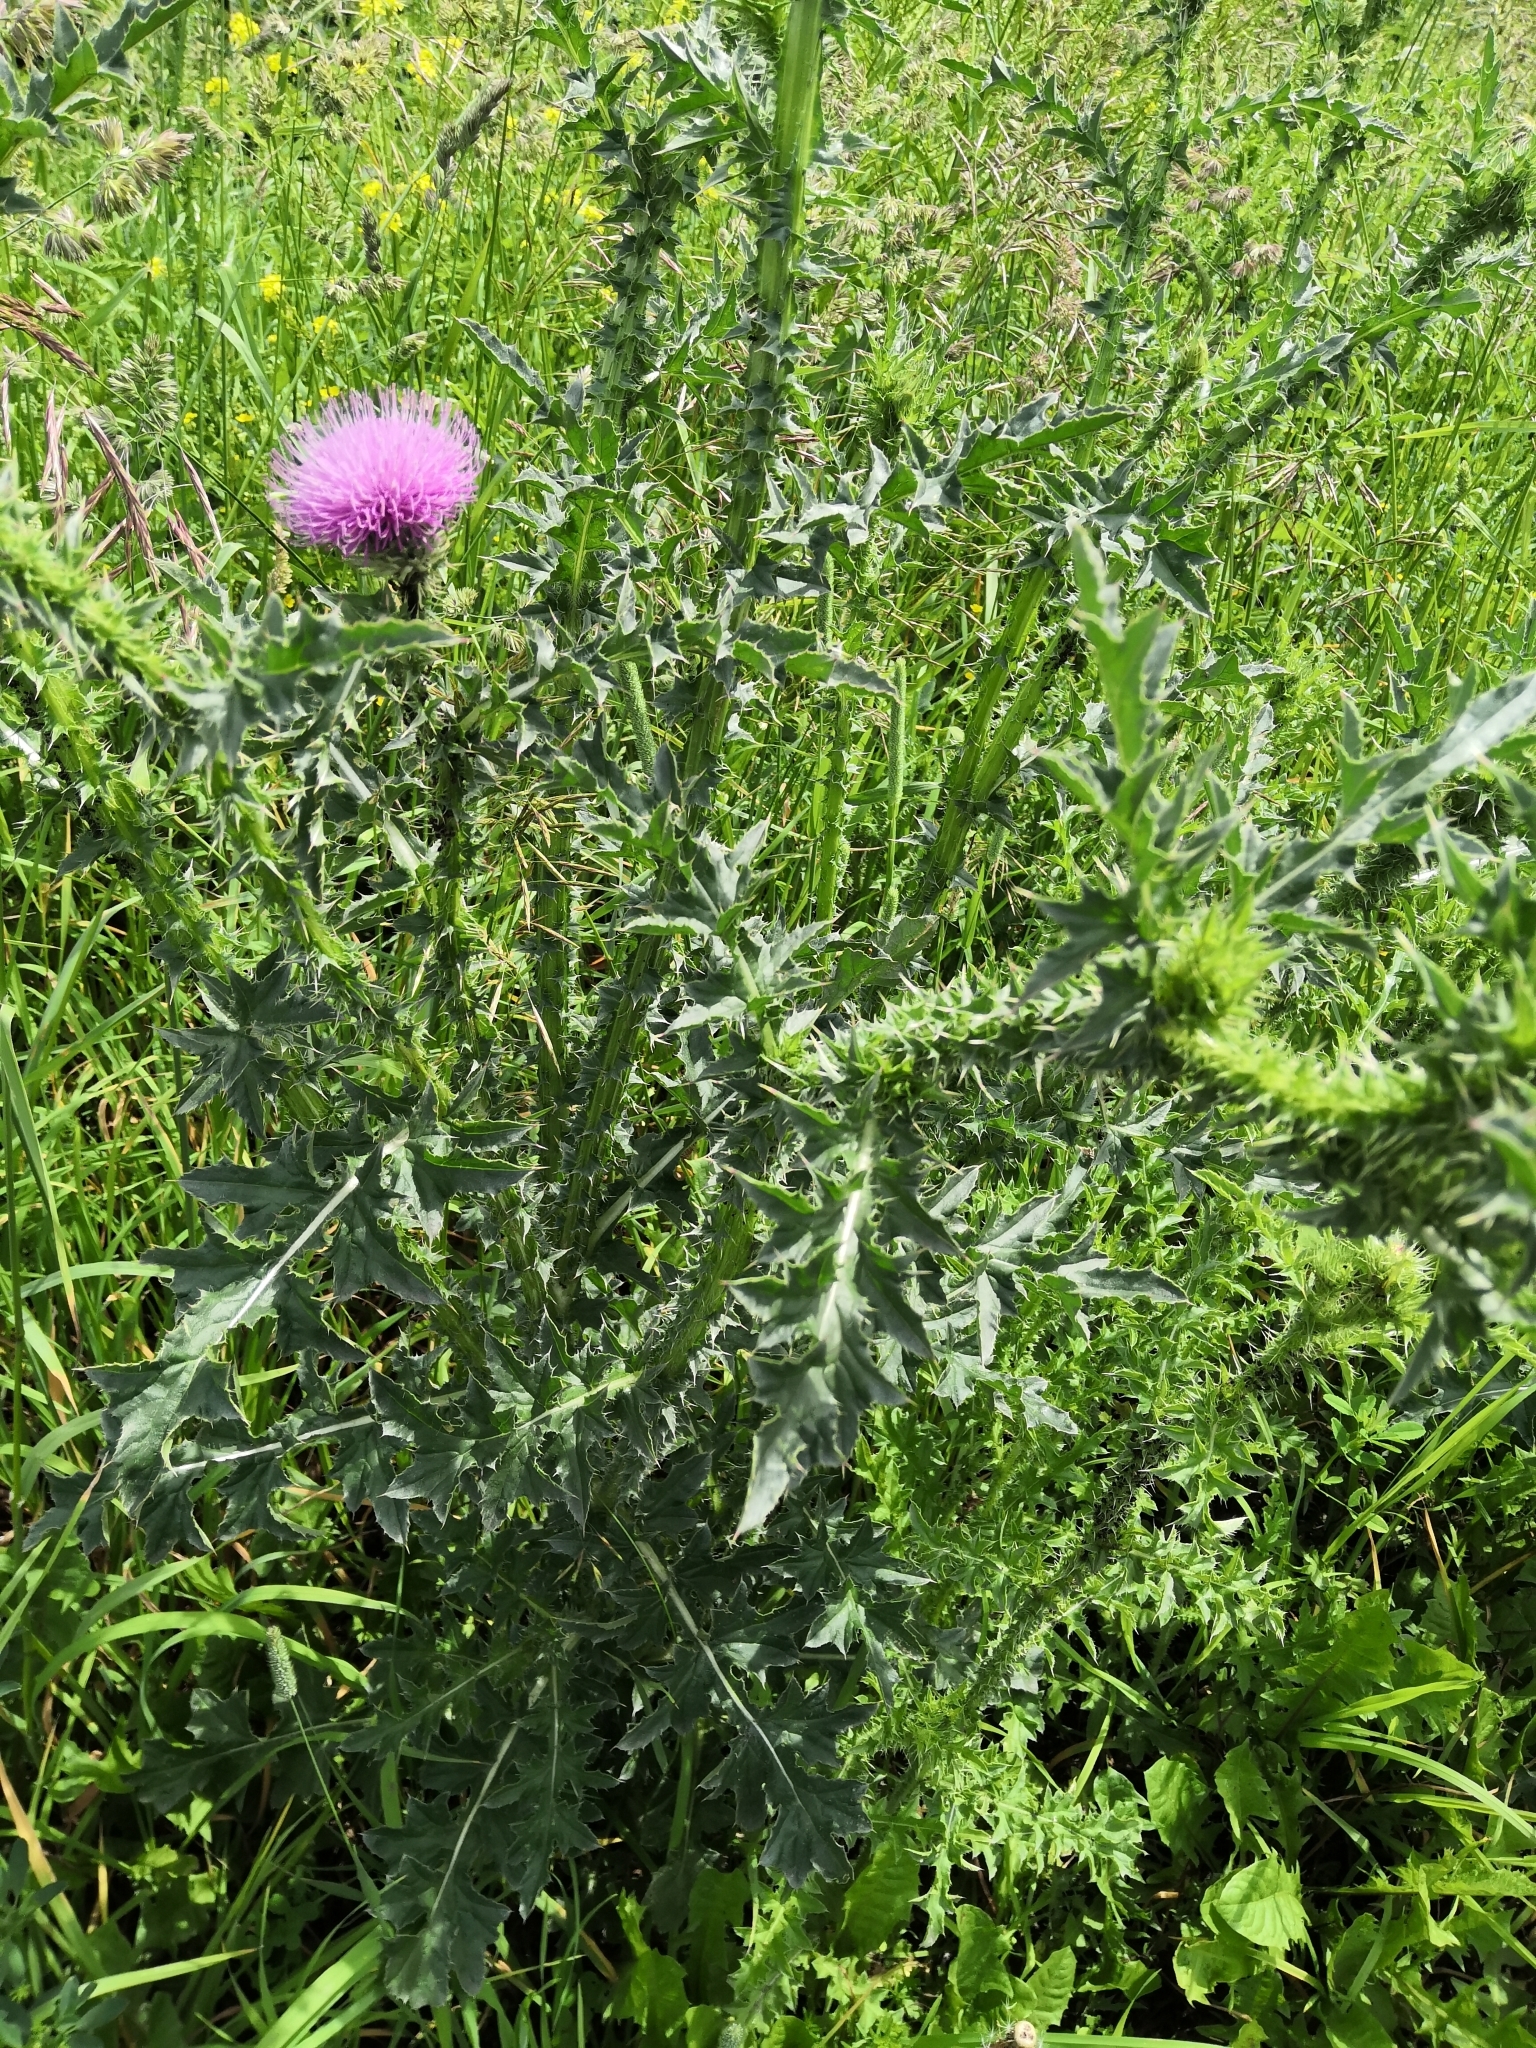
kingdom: Plantae
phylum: Tracheophyta
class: Magnoliopsida
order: Asterales
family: Asteraceae
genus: Carduus
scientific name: Carduus acanthoides
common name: Plumeless thistle
